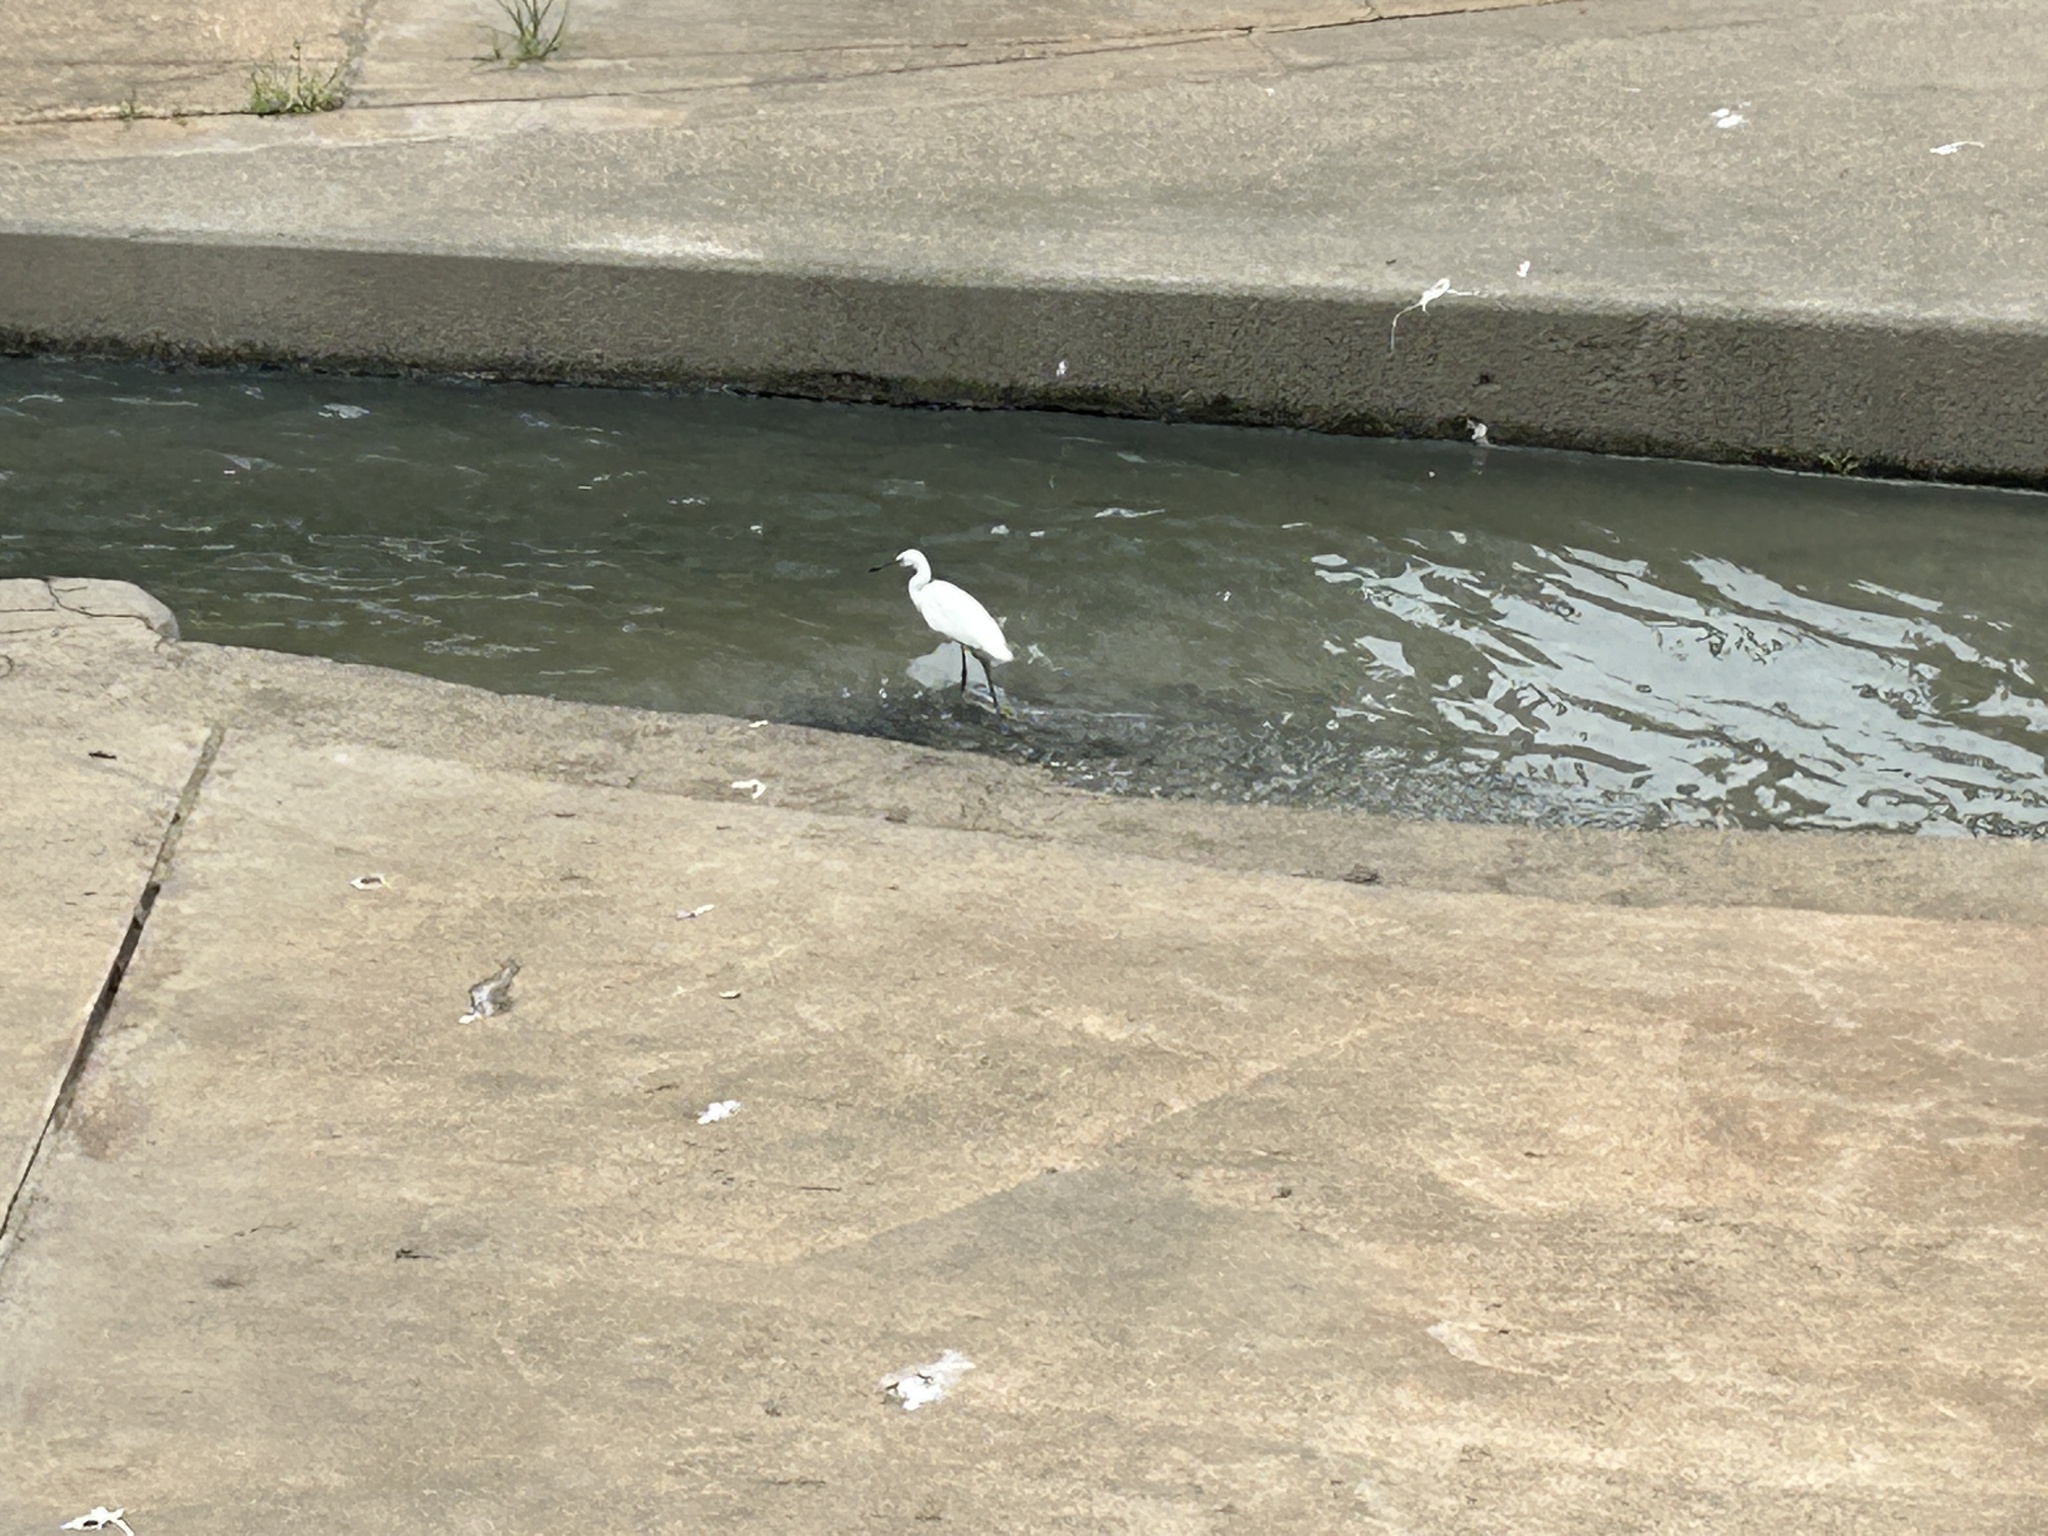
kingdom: Animalia
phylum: Chordata
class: Aves
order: Pelecaniformes
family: Ardeidae
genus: Egretta
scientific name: Egretta garzetta
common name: Little egret
